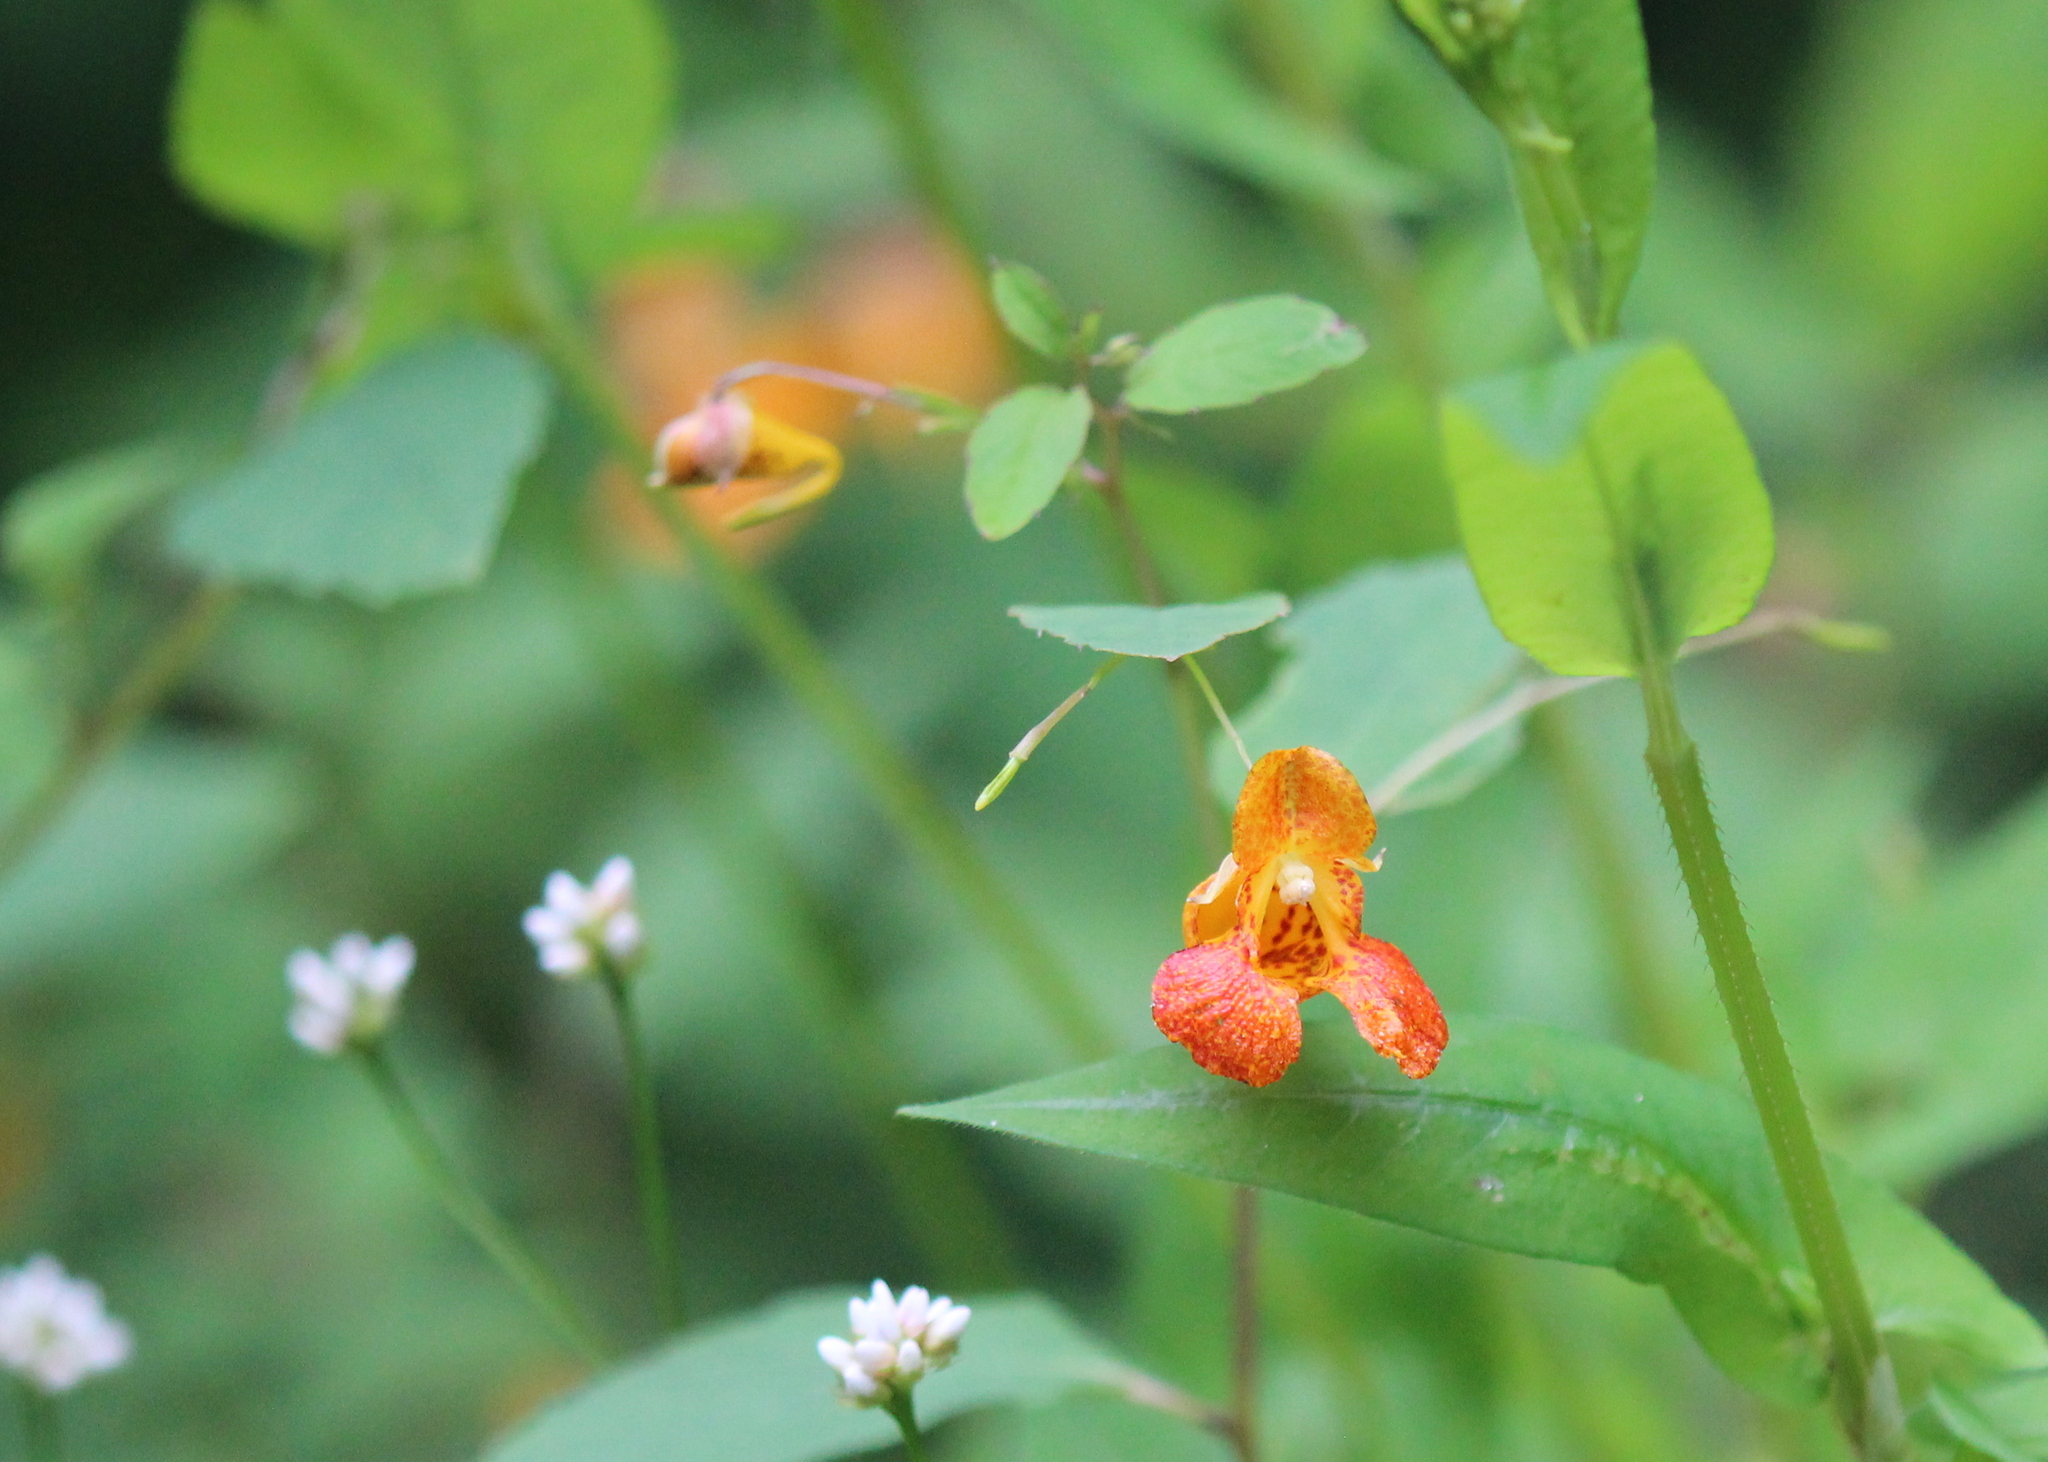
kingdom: Plantae
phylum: Tracheophyta
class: Magnoliopsida
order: Ericales
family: Balsaminaceae
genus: Impatiens
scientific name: Impatiens capensis
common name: Orange balsam
